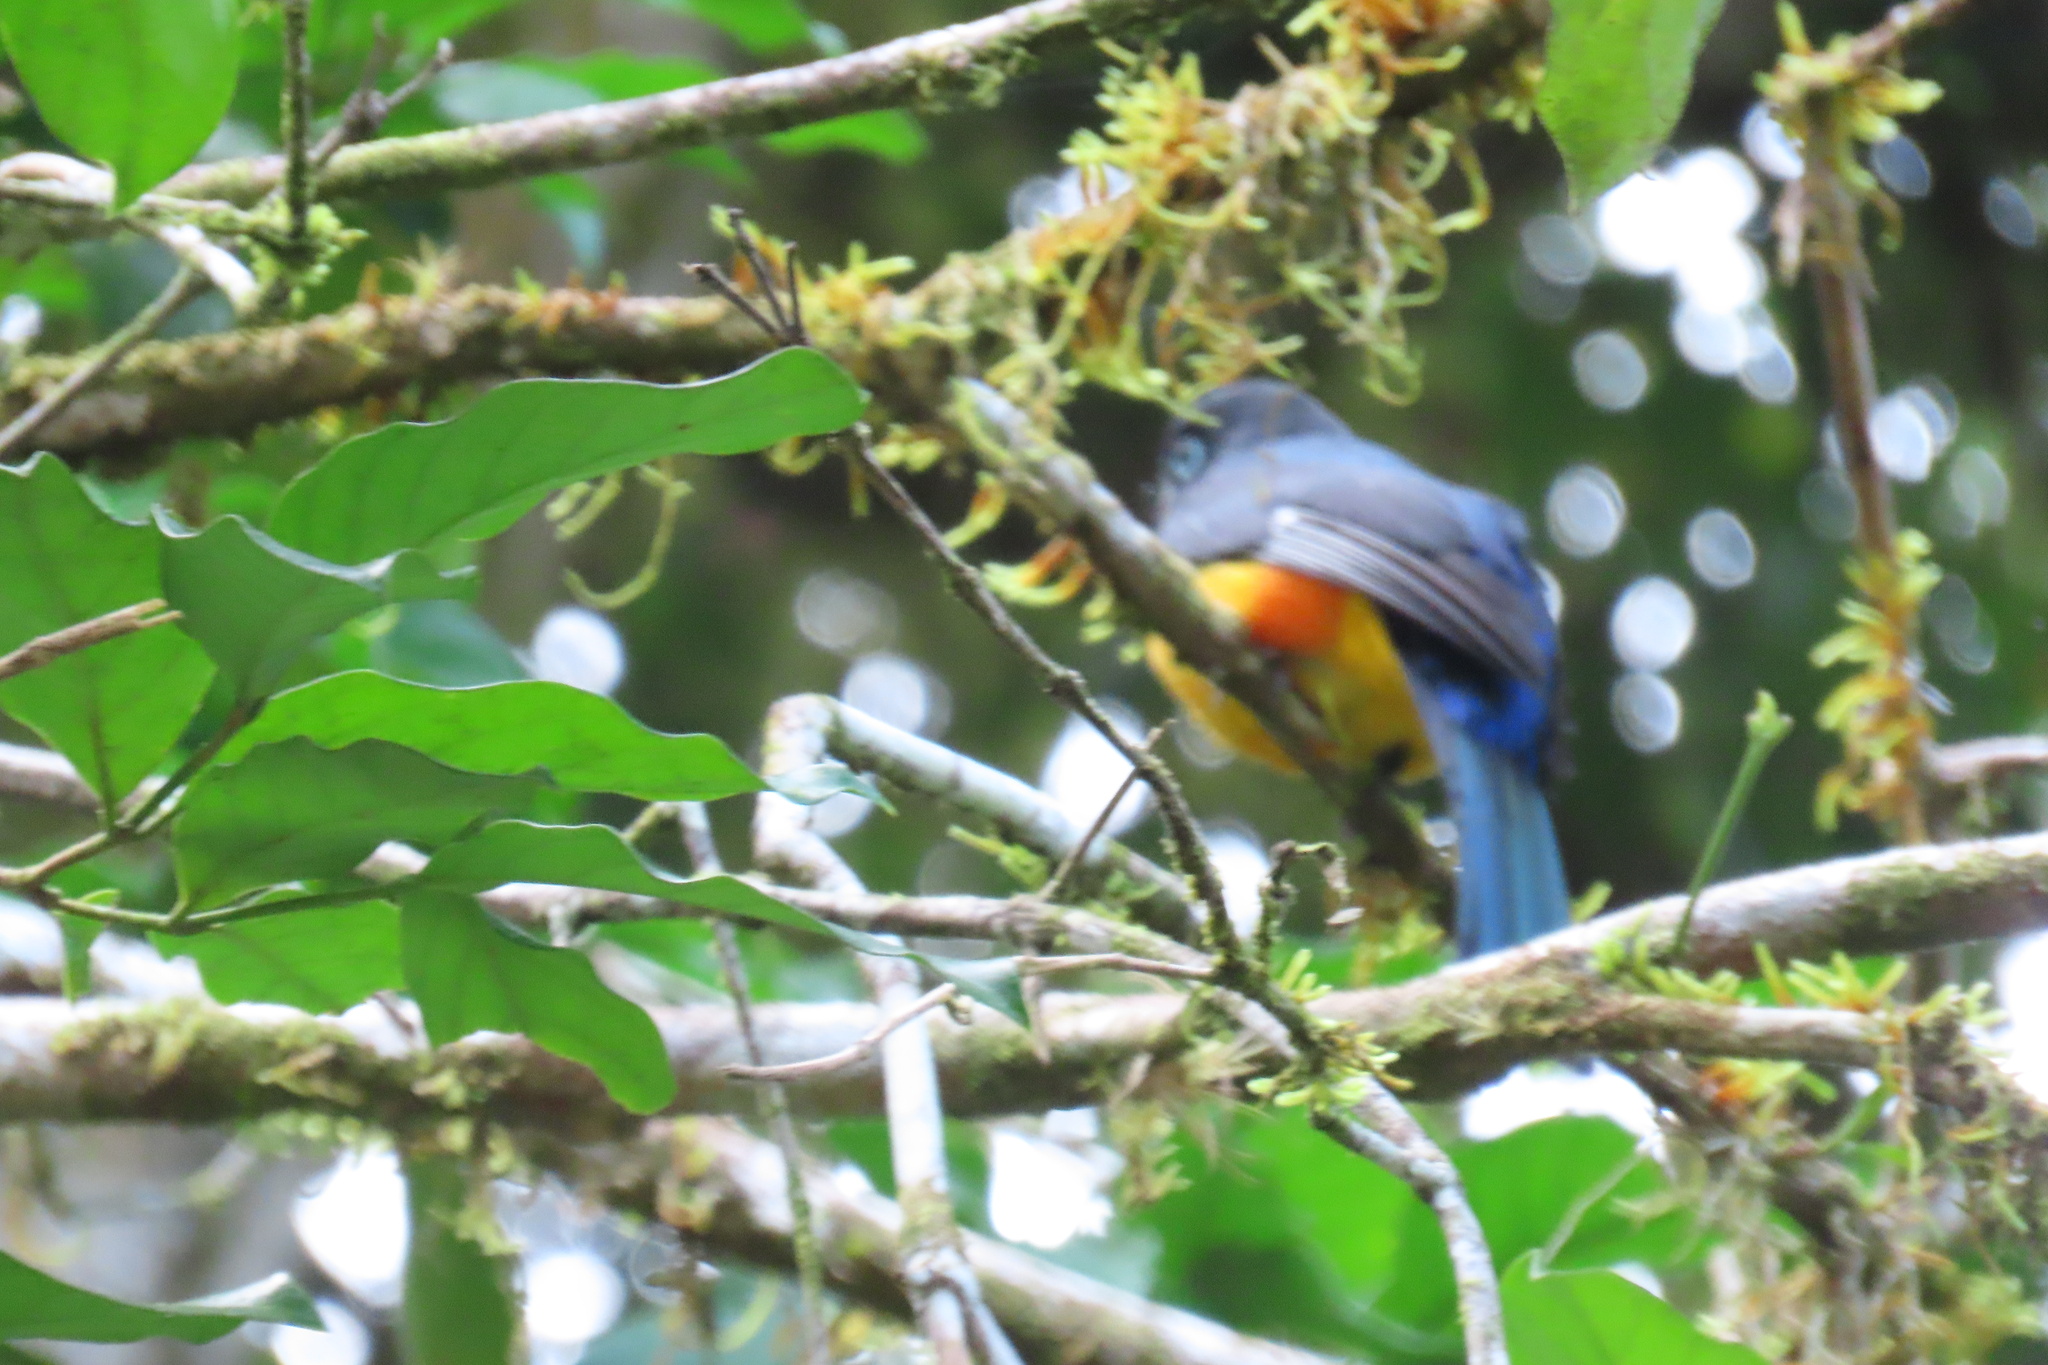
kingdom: Animalia
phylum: Chordata
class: Aves
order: Trogoniformes
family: Trogonidae
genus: Trogon
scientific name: Trogon melanocephalus
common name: Black-headed trogon
